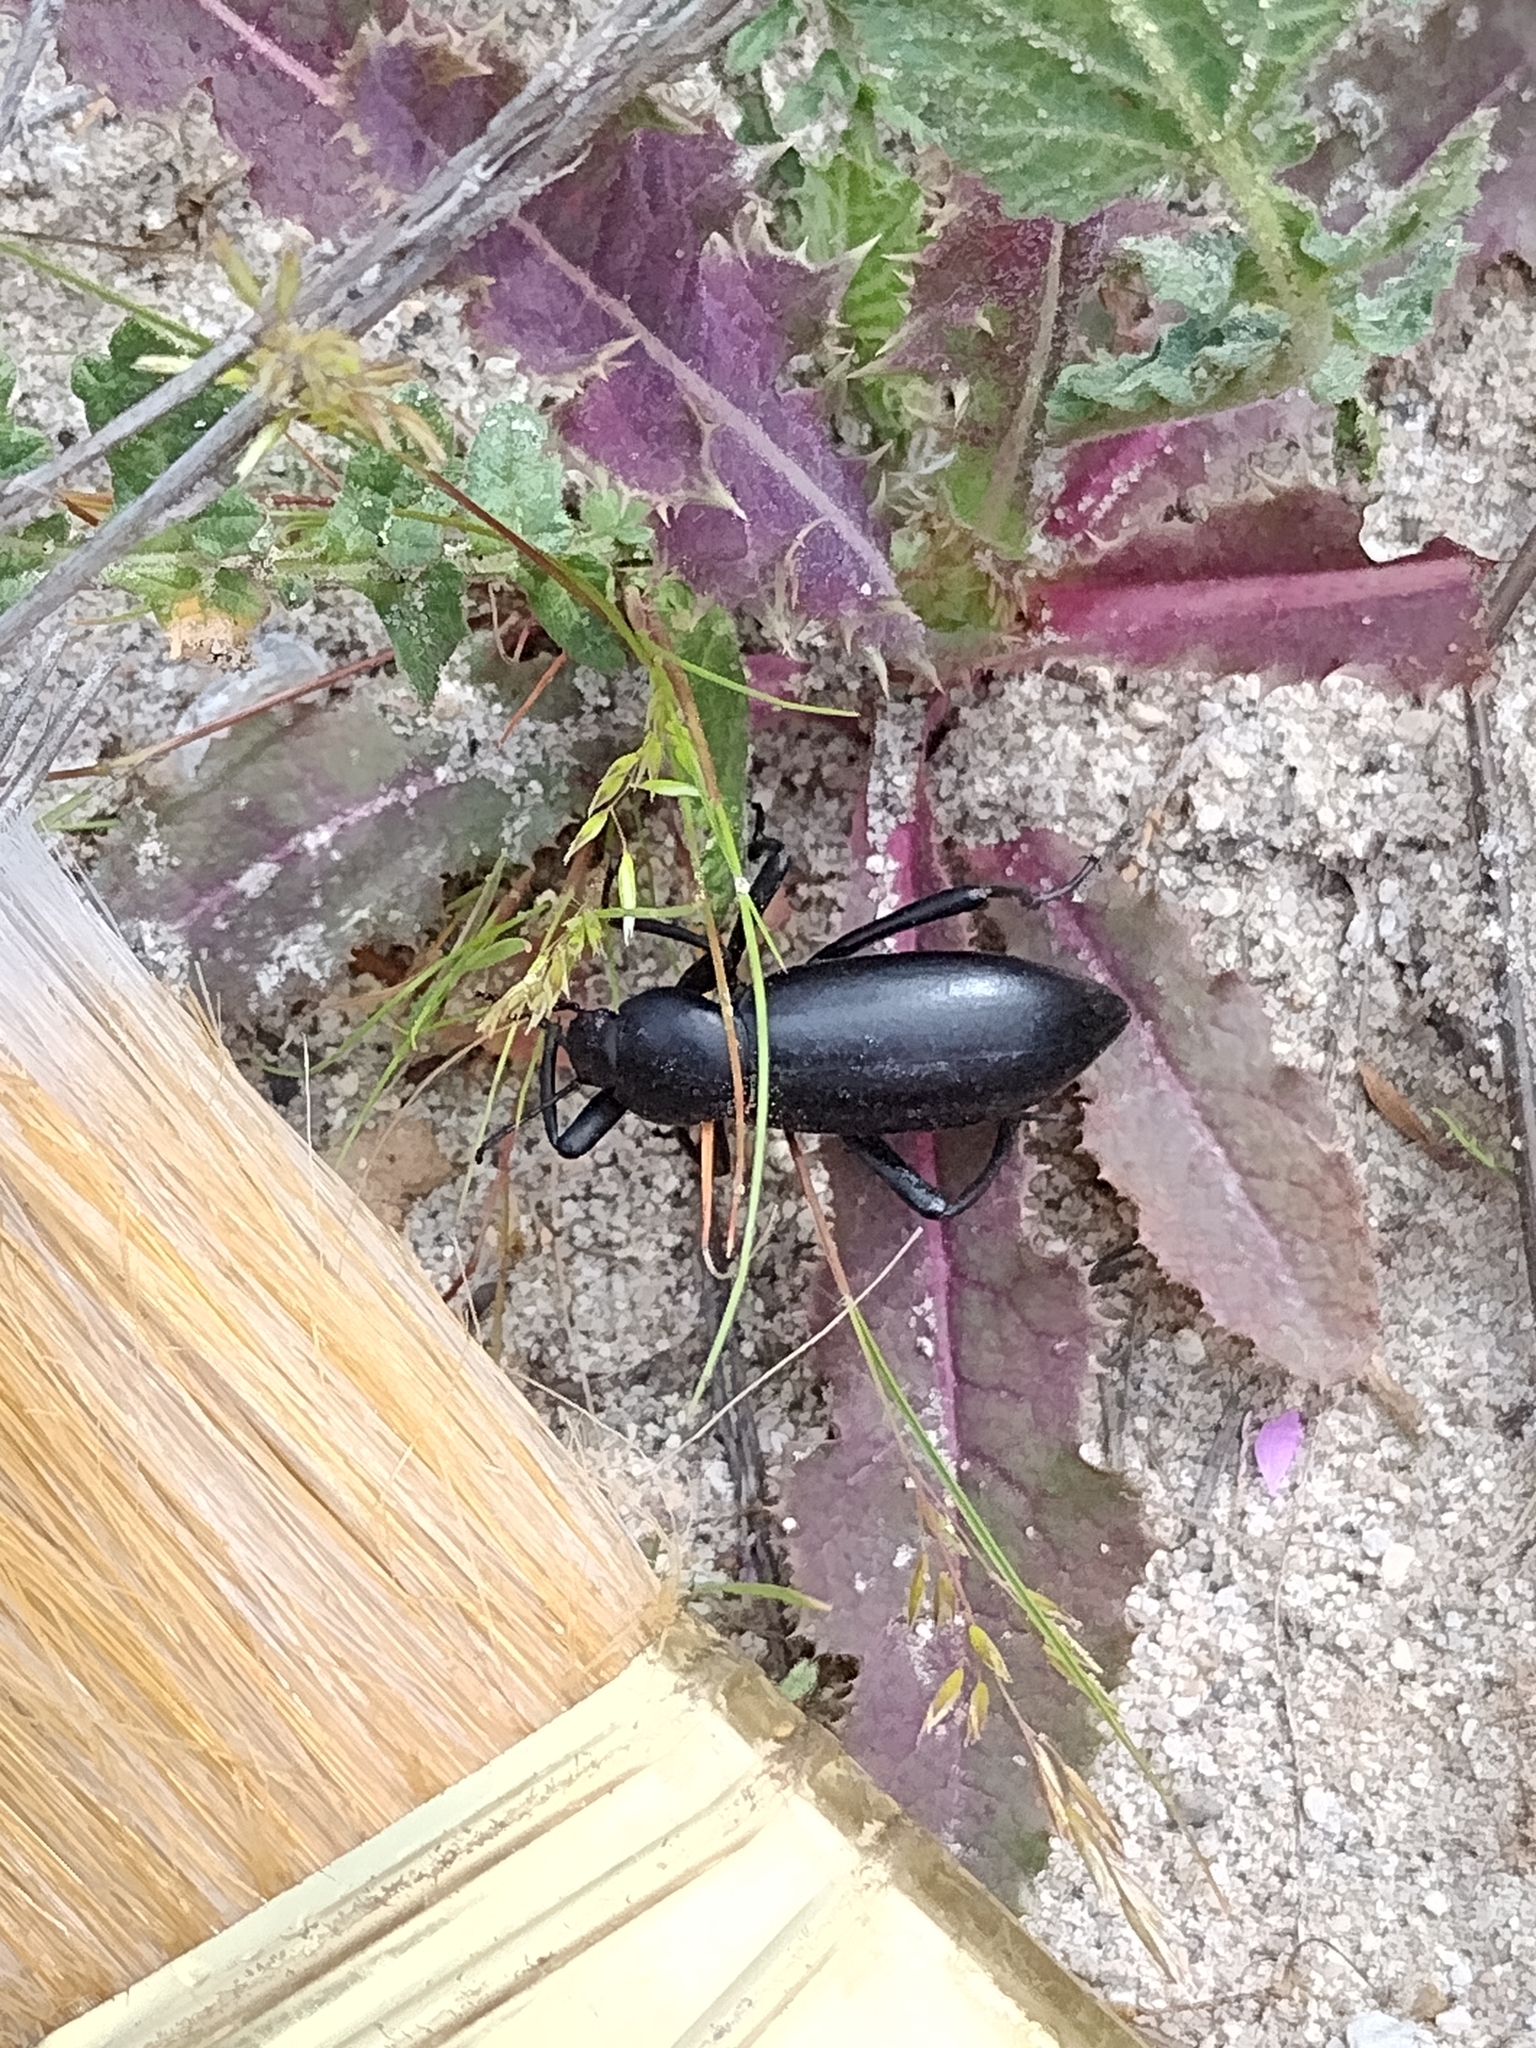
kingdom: Animalia
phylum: Arthropoda
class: Insecta
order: Coleoptera
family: Tenebrionidae
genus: Eleodes
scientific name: Eleodes gigantea
